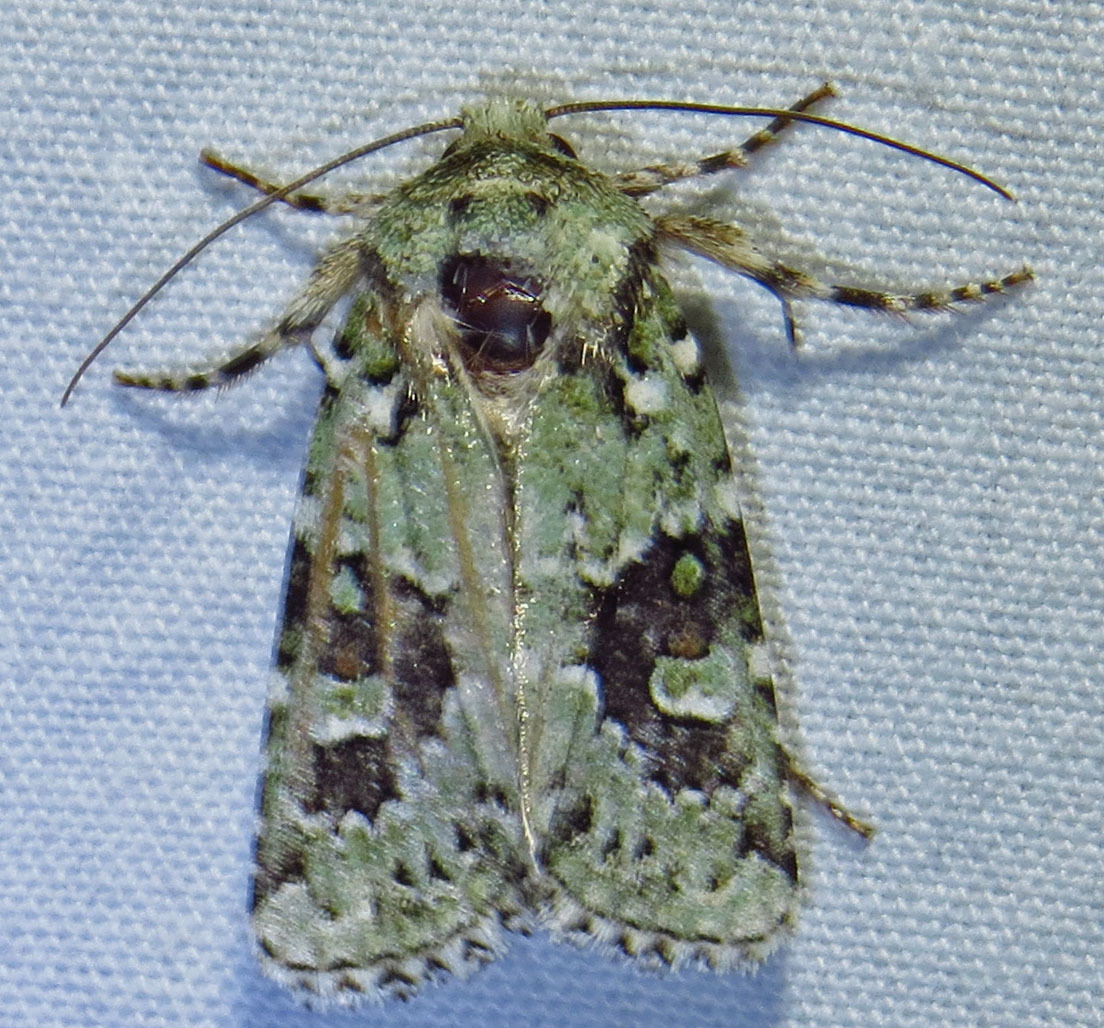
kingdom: Animalia
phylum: Arthropoda
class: Insecta
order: Lepidoptera
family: Noctuidae
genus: Lacinipolia
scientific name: Lacinipolia laudabilis
